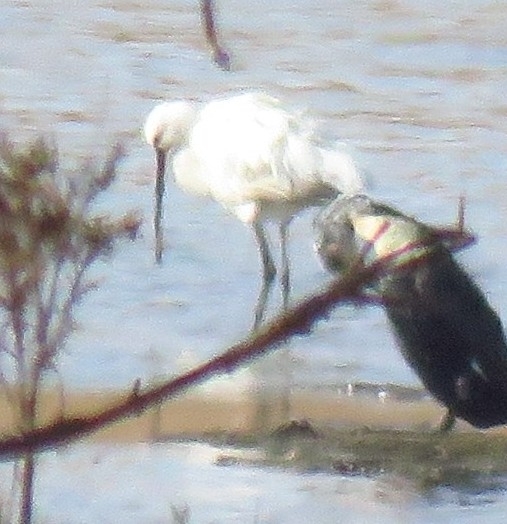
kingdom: Animalia
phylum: Chordata
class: Aves
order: Pelecaniformes
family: Threskiornithidae
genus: Platalea
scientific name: Platalea leucorodia
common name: Eurasian spoonbill
